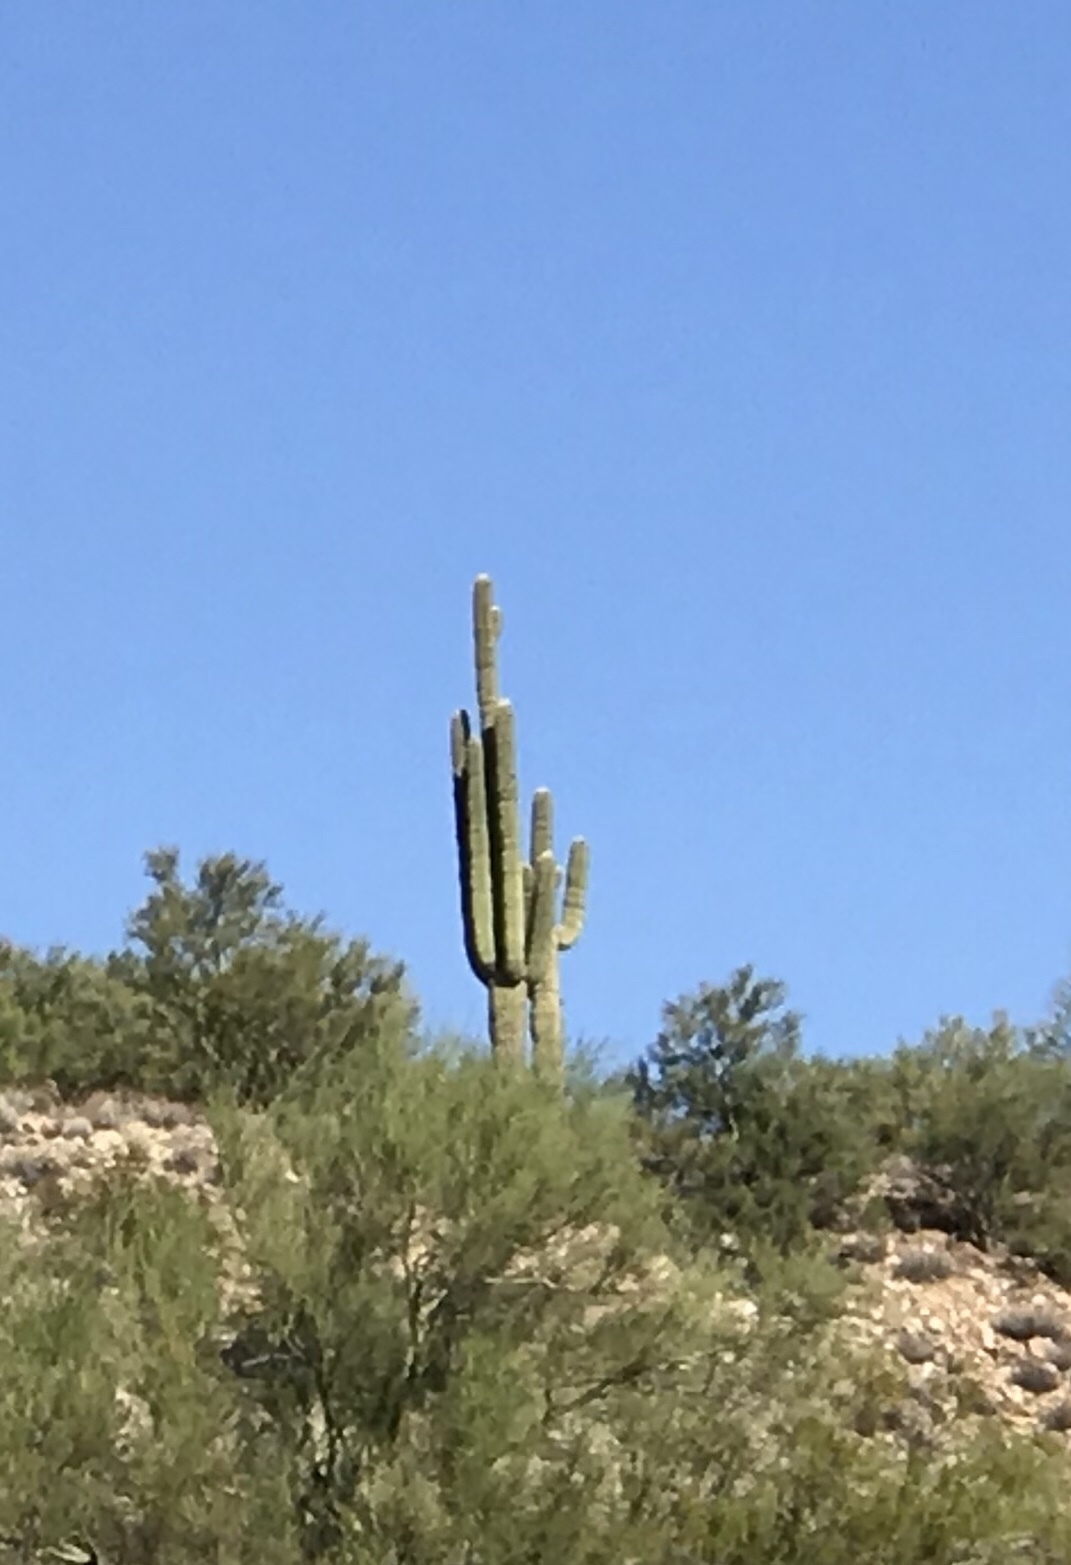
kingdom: Plantae
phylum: Tracheophyta
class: Magnoliopsida
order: Caryophyllales
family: Cactaceae
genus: Carnegiea
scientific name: Carnegiea gigantea
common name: Saguaro
